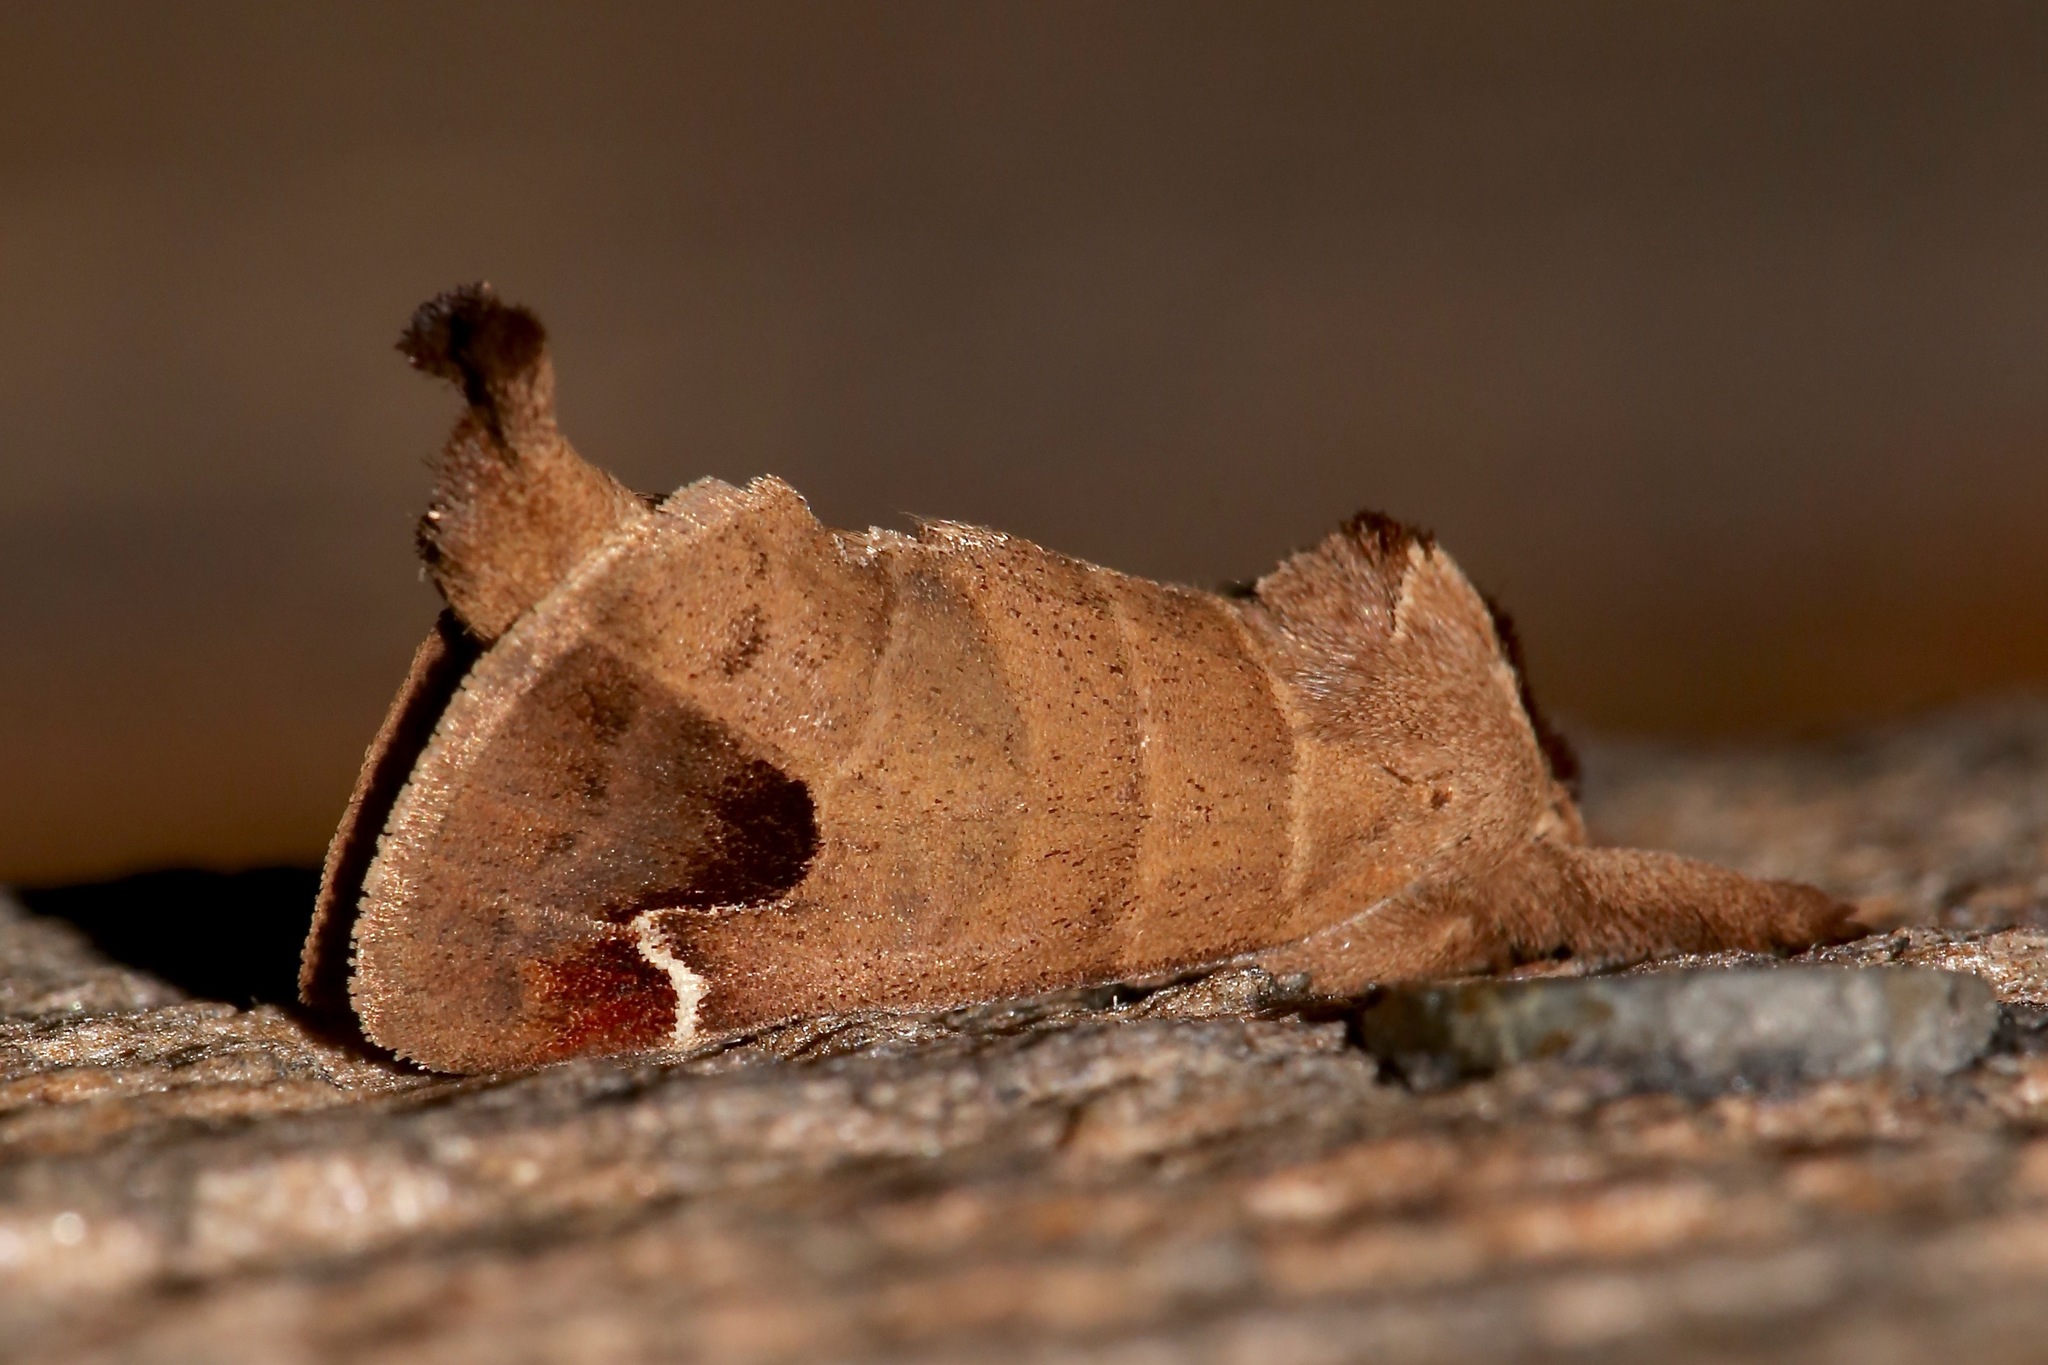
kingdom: Animalia
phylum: Arthropoda
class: Insecta
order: Lepidoptera
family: Notodontidae
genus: Clostera
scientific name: Clostera albosigma
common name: Sigmoid prominent
